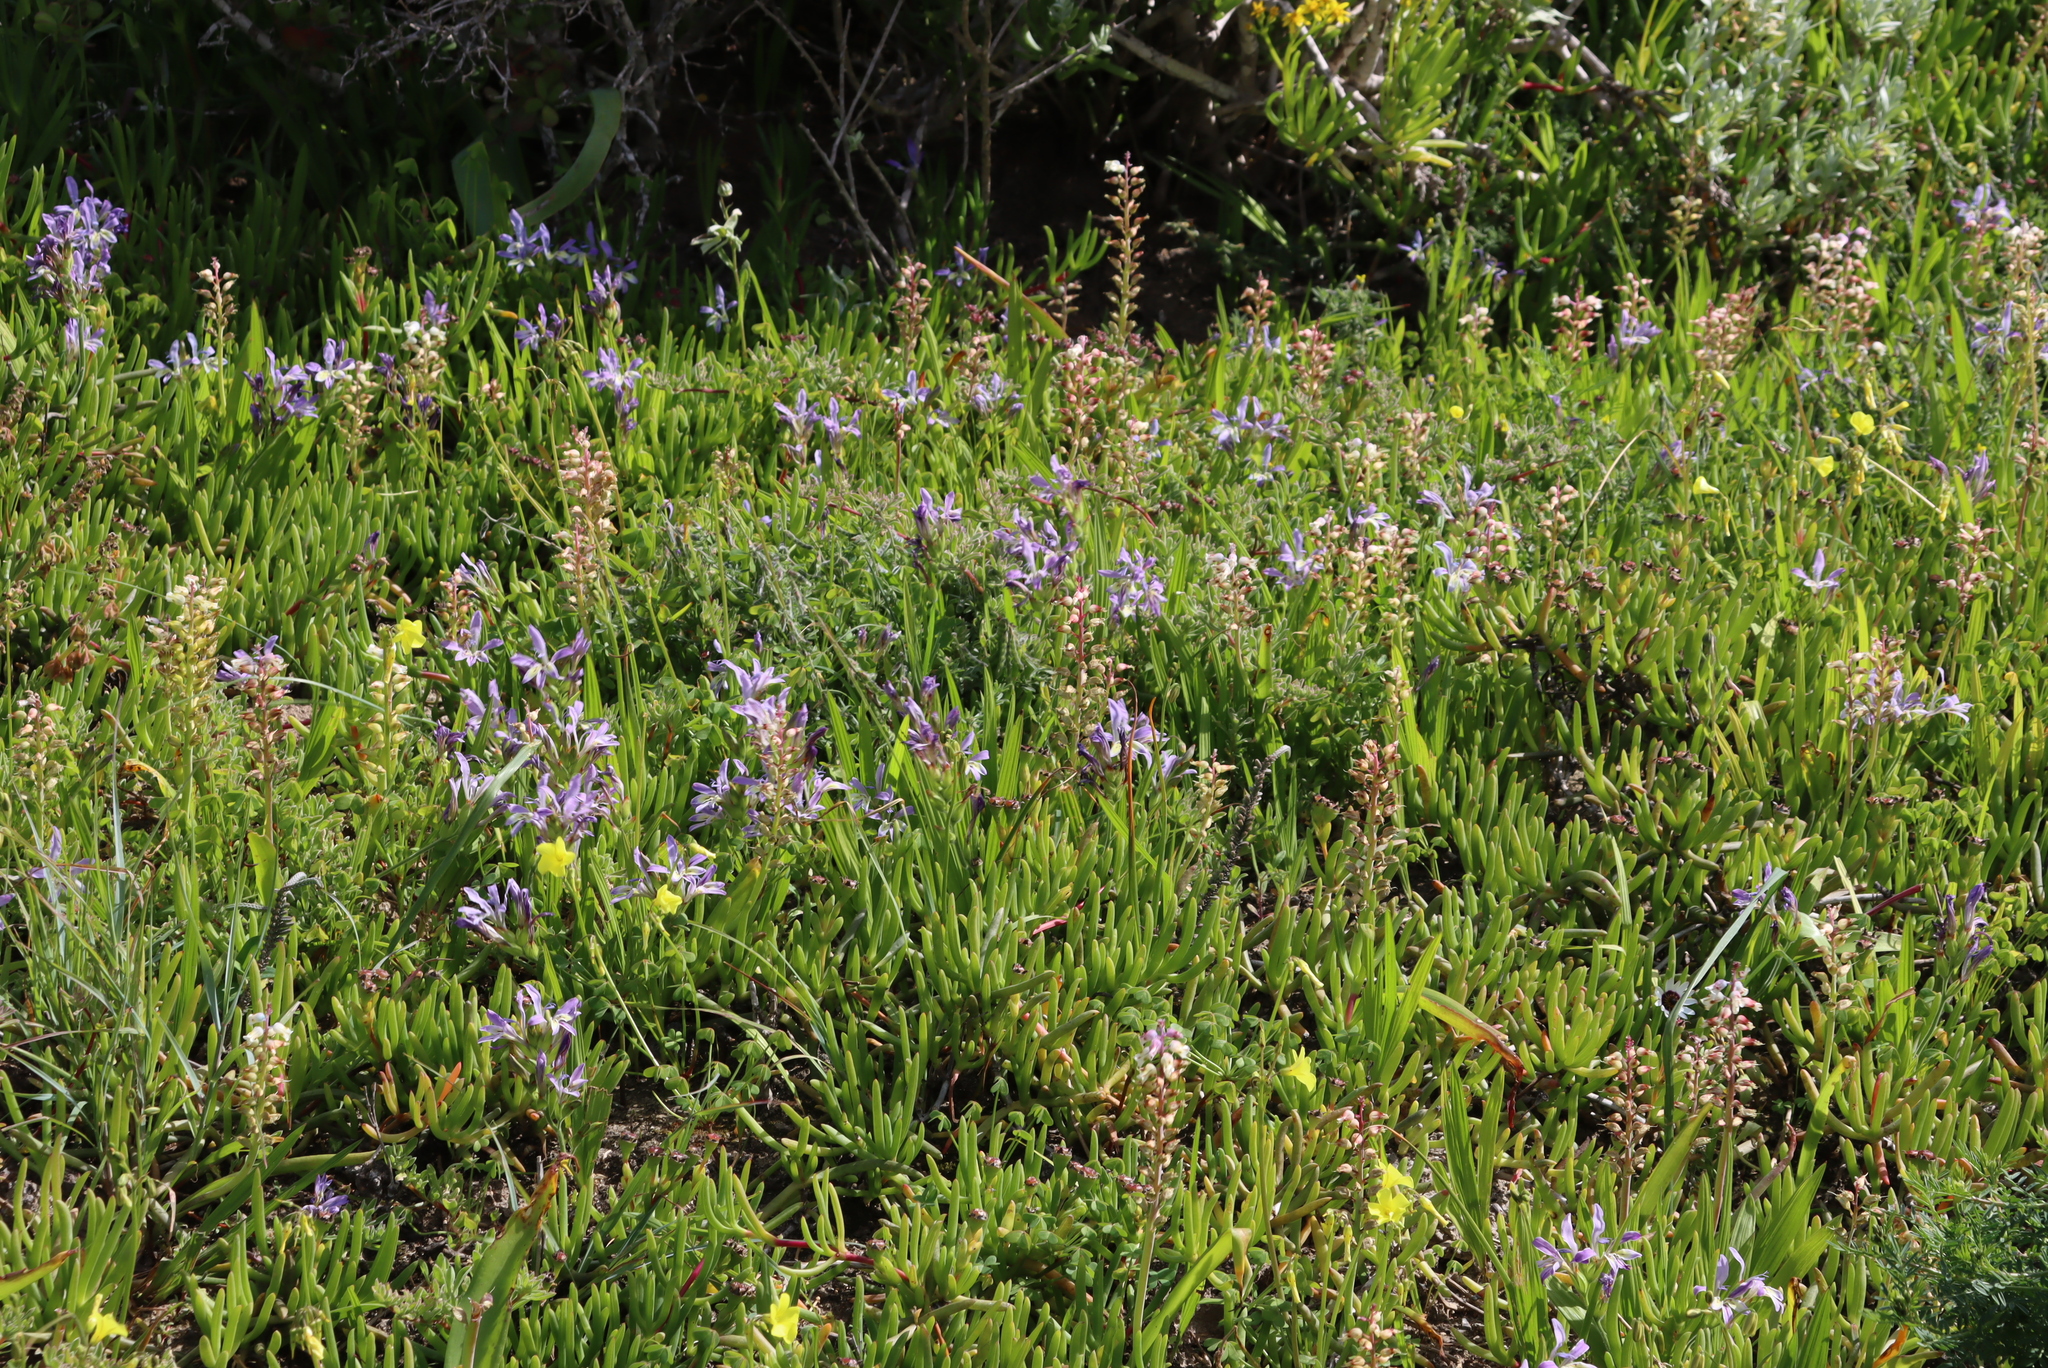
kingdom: Plantae
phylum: Tracheophyta
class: Liliopsida
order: Asparagales
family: Asparagaceae
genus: Lachenalia
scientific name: Lachenalia pallida
